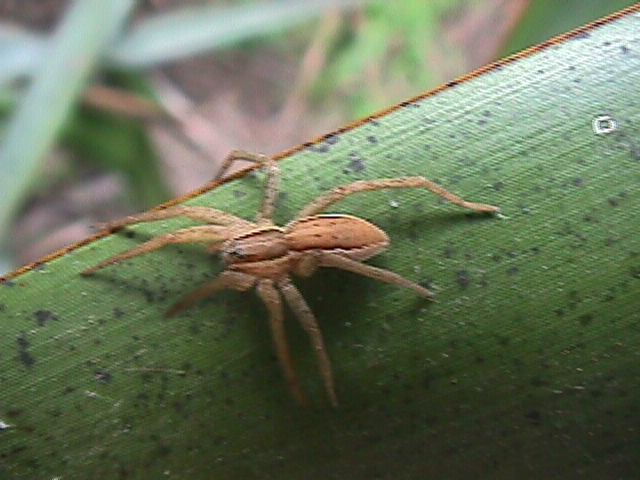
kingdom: Animalia
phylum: Arthropoda
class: Arachnida
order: Araneae
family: Pisauridae
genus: Dolomedes
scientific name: Dolomedes minor
